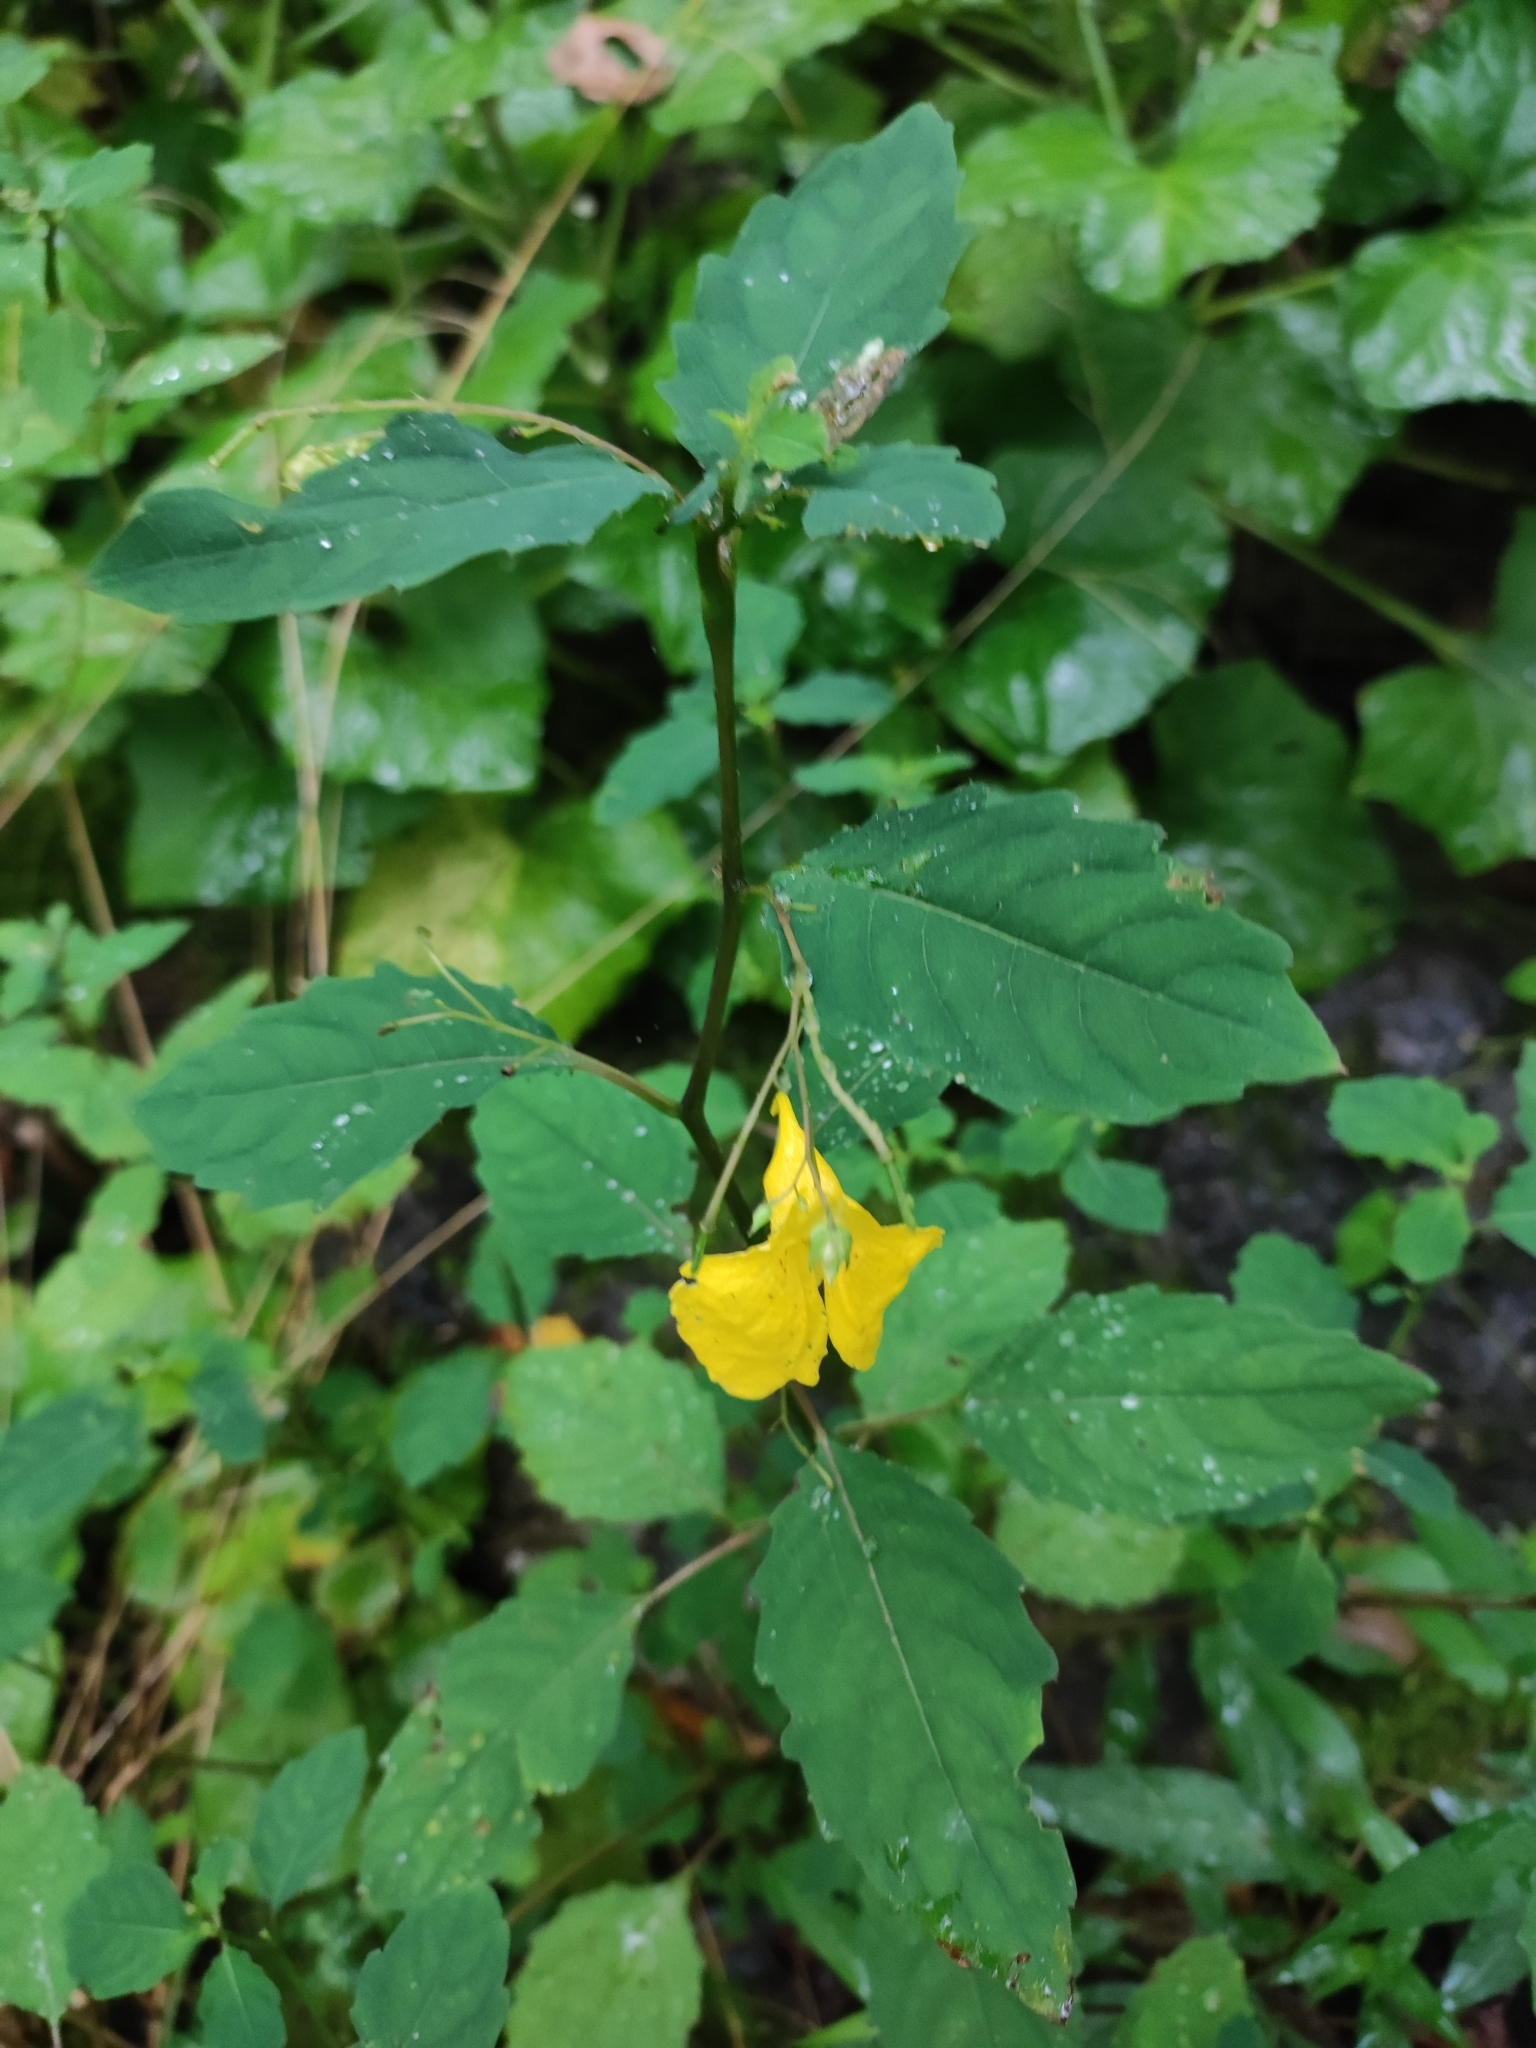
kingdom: Plantae
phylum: Tracheophyta
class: Magnoliopsida
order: Ericales
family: Balsaminaceae
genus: Impatiens
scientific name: Impatiens noli-tangere
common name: Touch-me-not balsam
